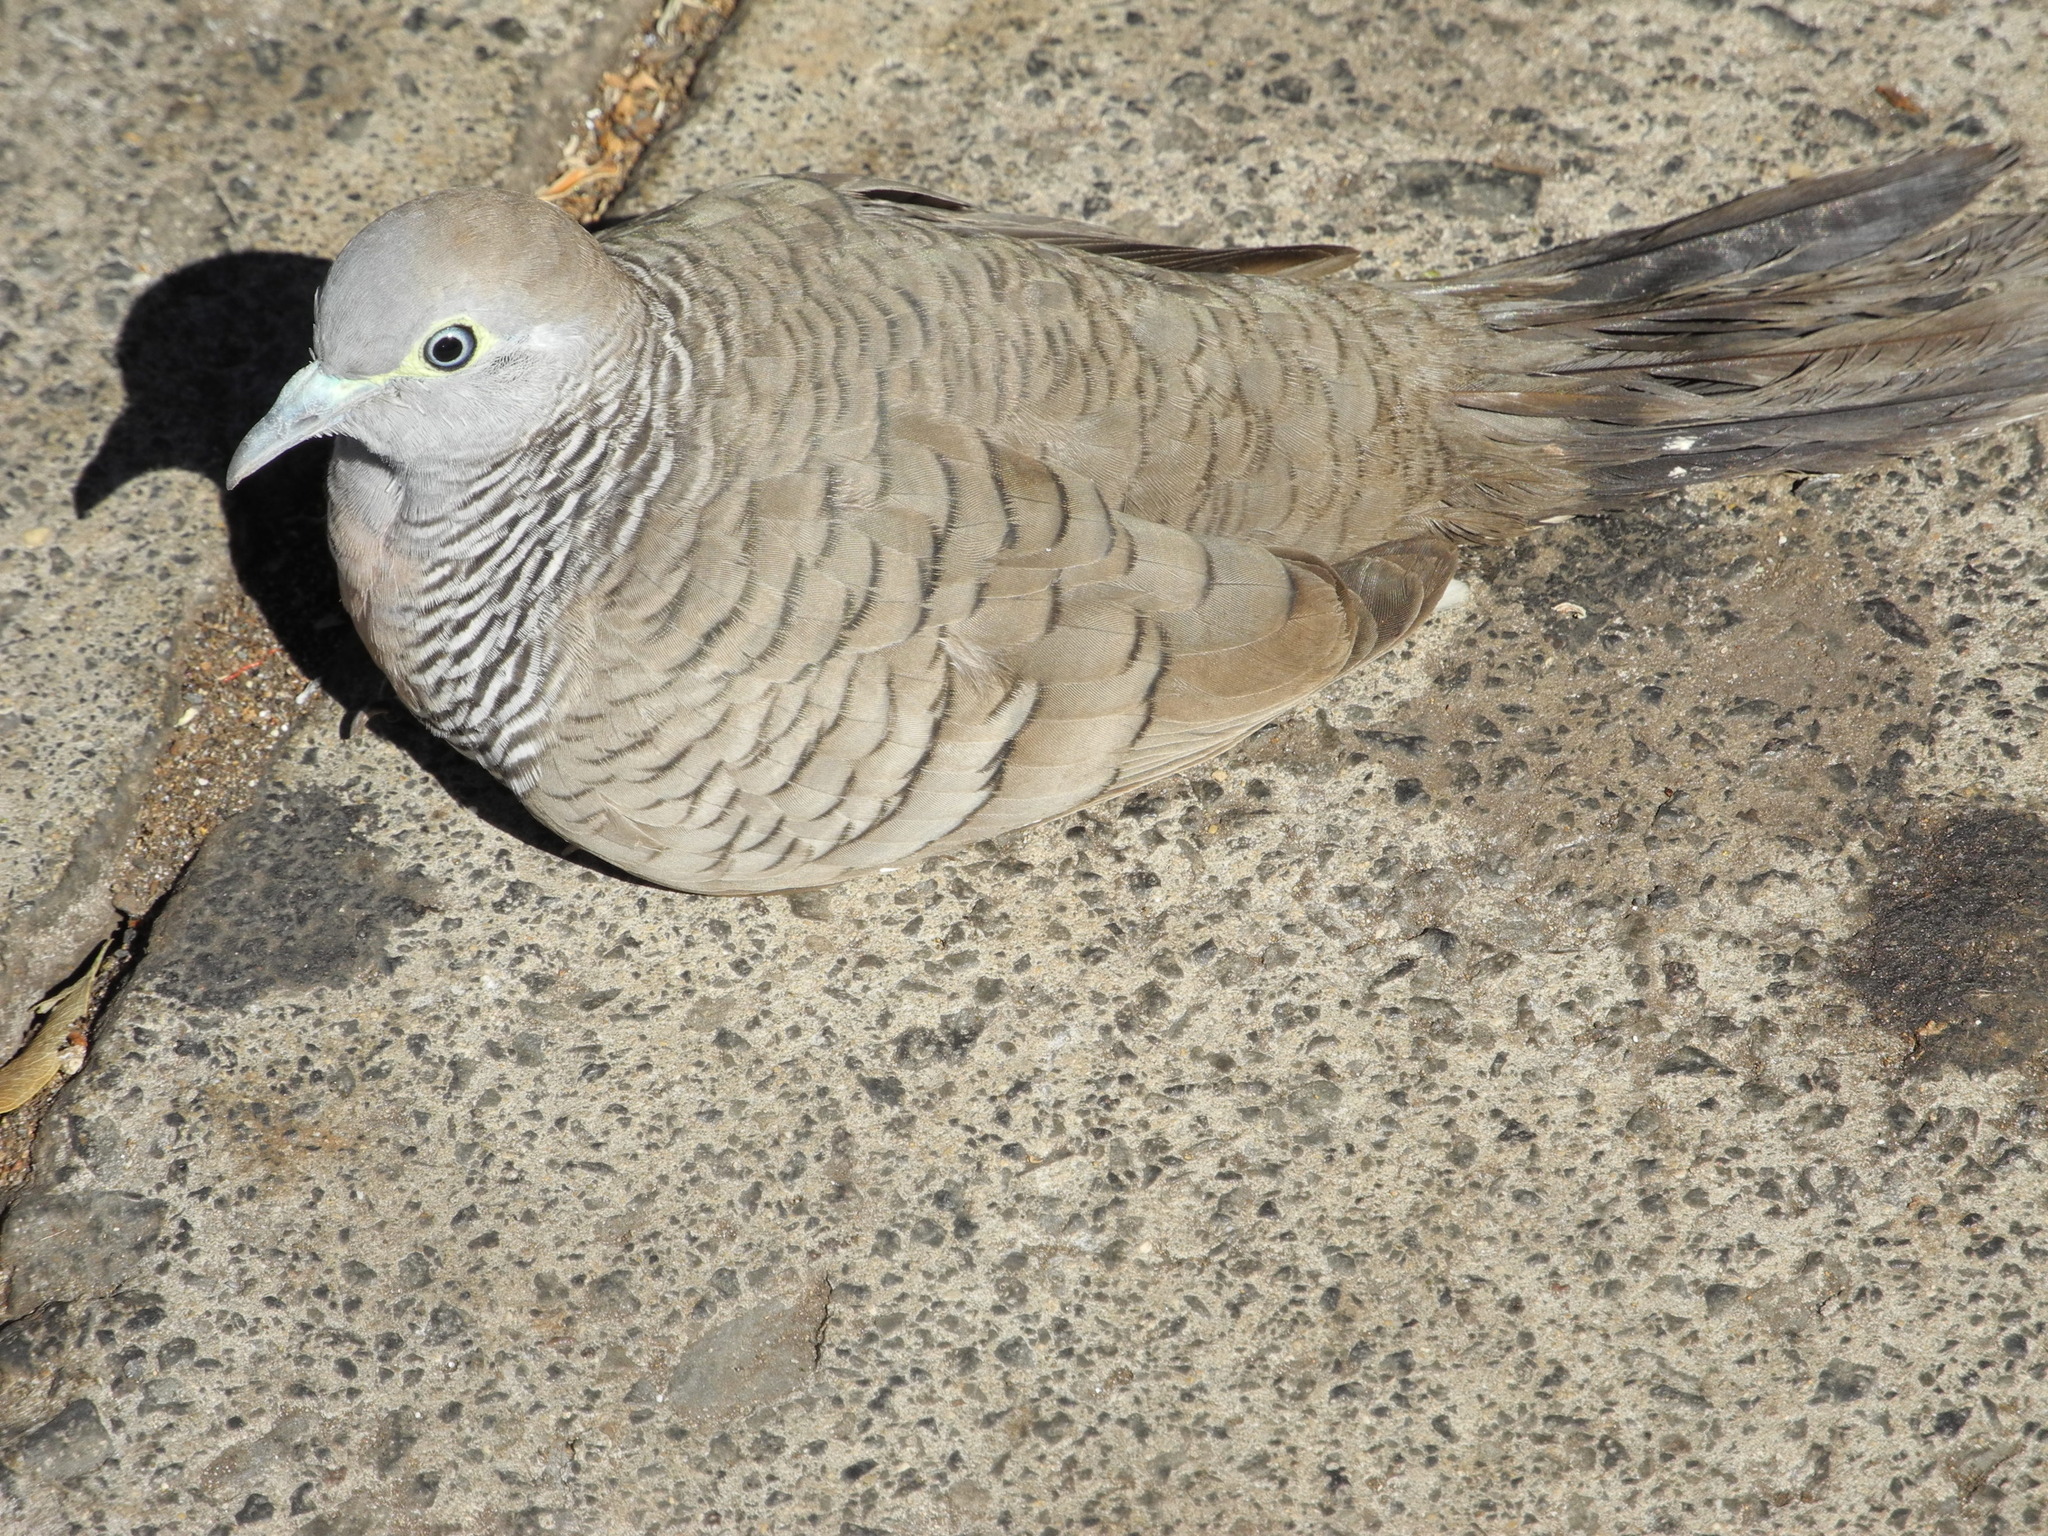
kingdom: Animalia
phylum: Chordata
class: Aves
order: Columbiformes
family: Columbidae
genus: Geopelia
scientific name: Geopelia striata
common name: Zebra dove
